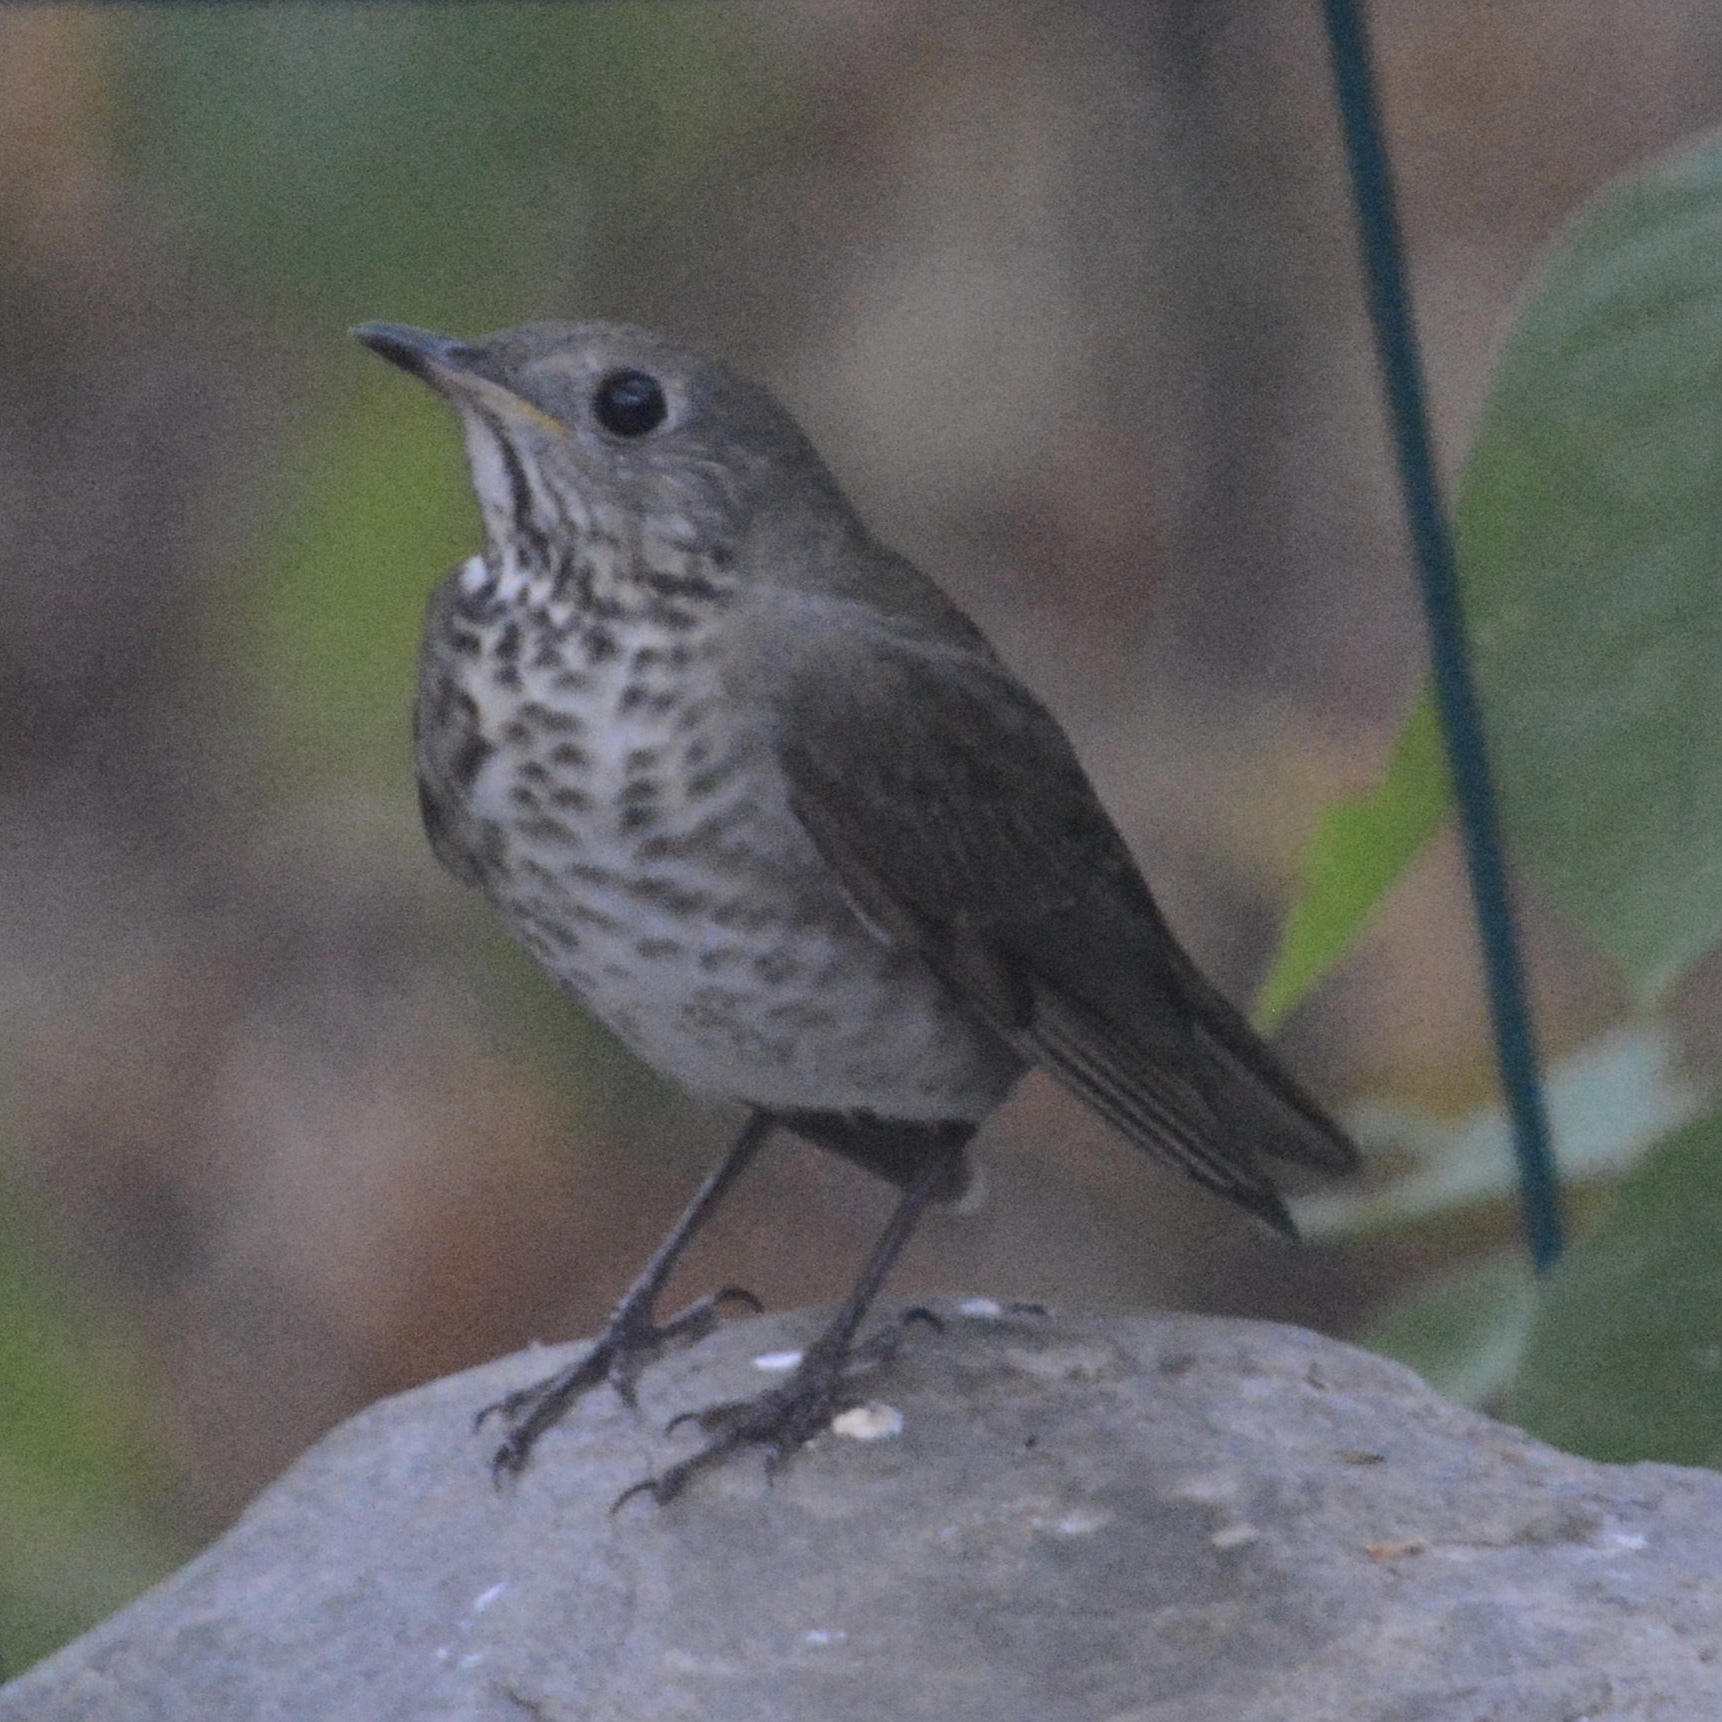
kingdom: Animalia
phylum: Chordata
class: Aves
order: Passeriformes
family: Turdidae
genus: Catharus
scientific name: Catharus minimus
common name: Grey-cheeked thrush
